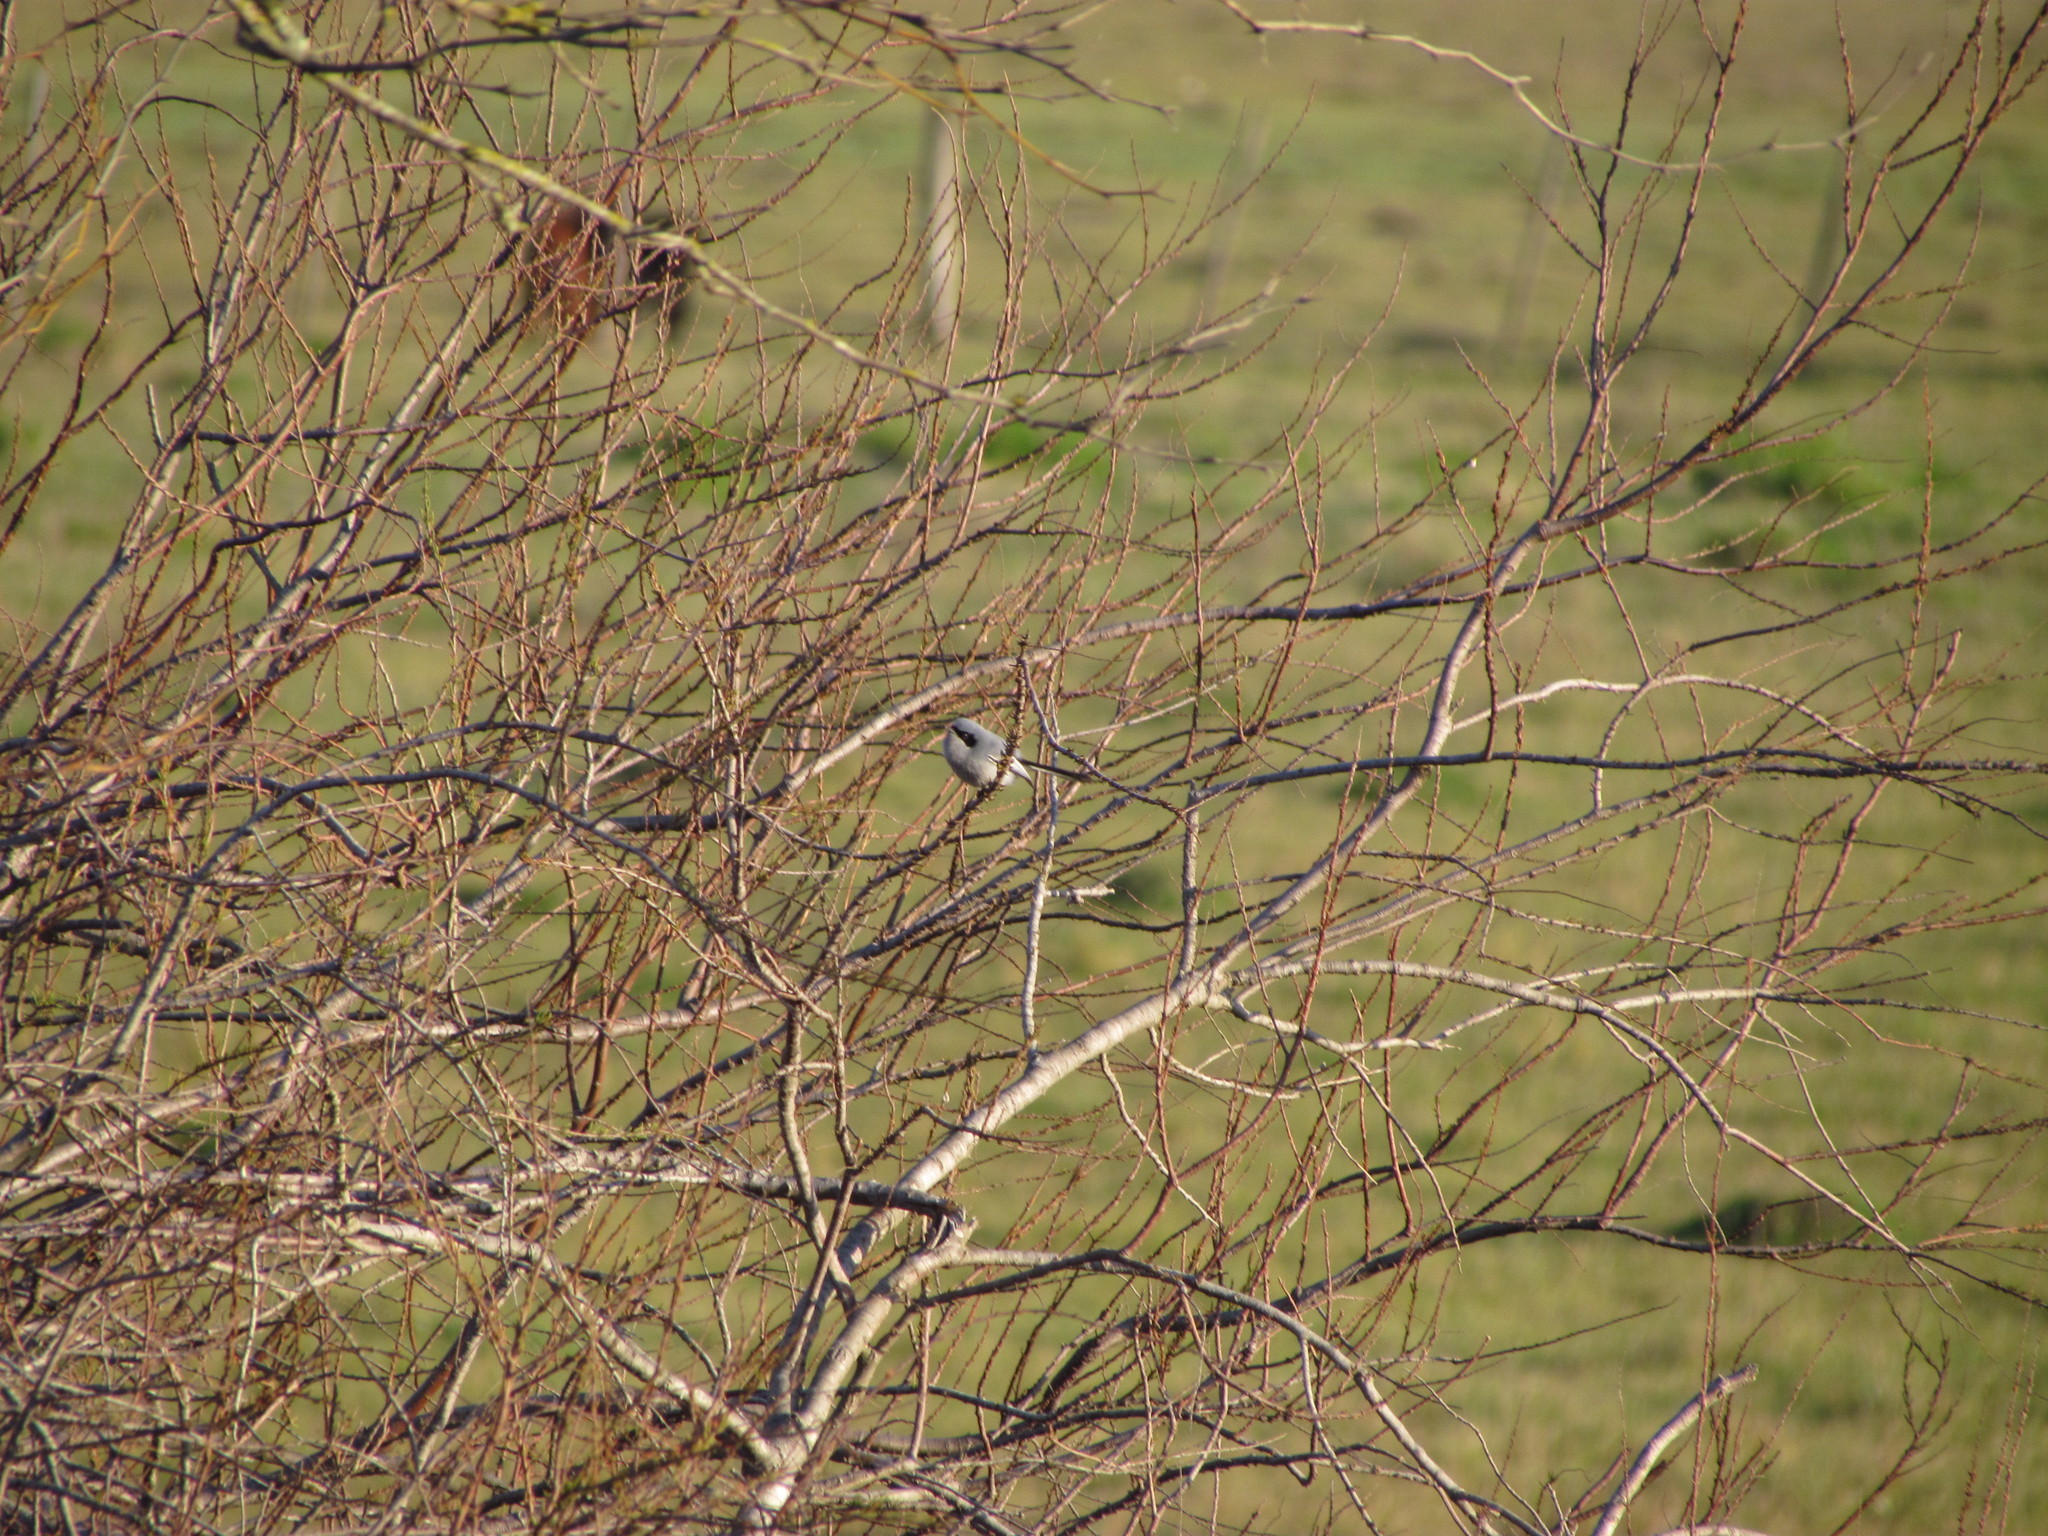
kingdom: Animalia
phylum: Chordata
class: Aves
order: Passeriformes
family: Polioptilidae
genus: Polioptila
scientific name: Polioptila dumicola
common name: Masked gnatcatcher
